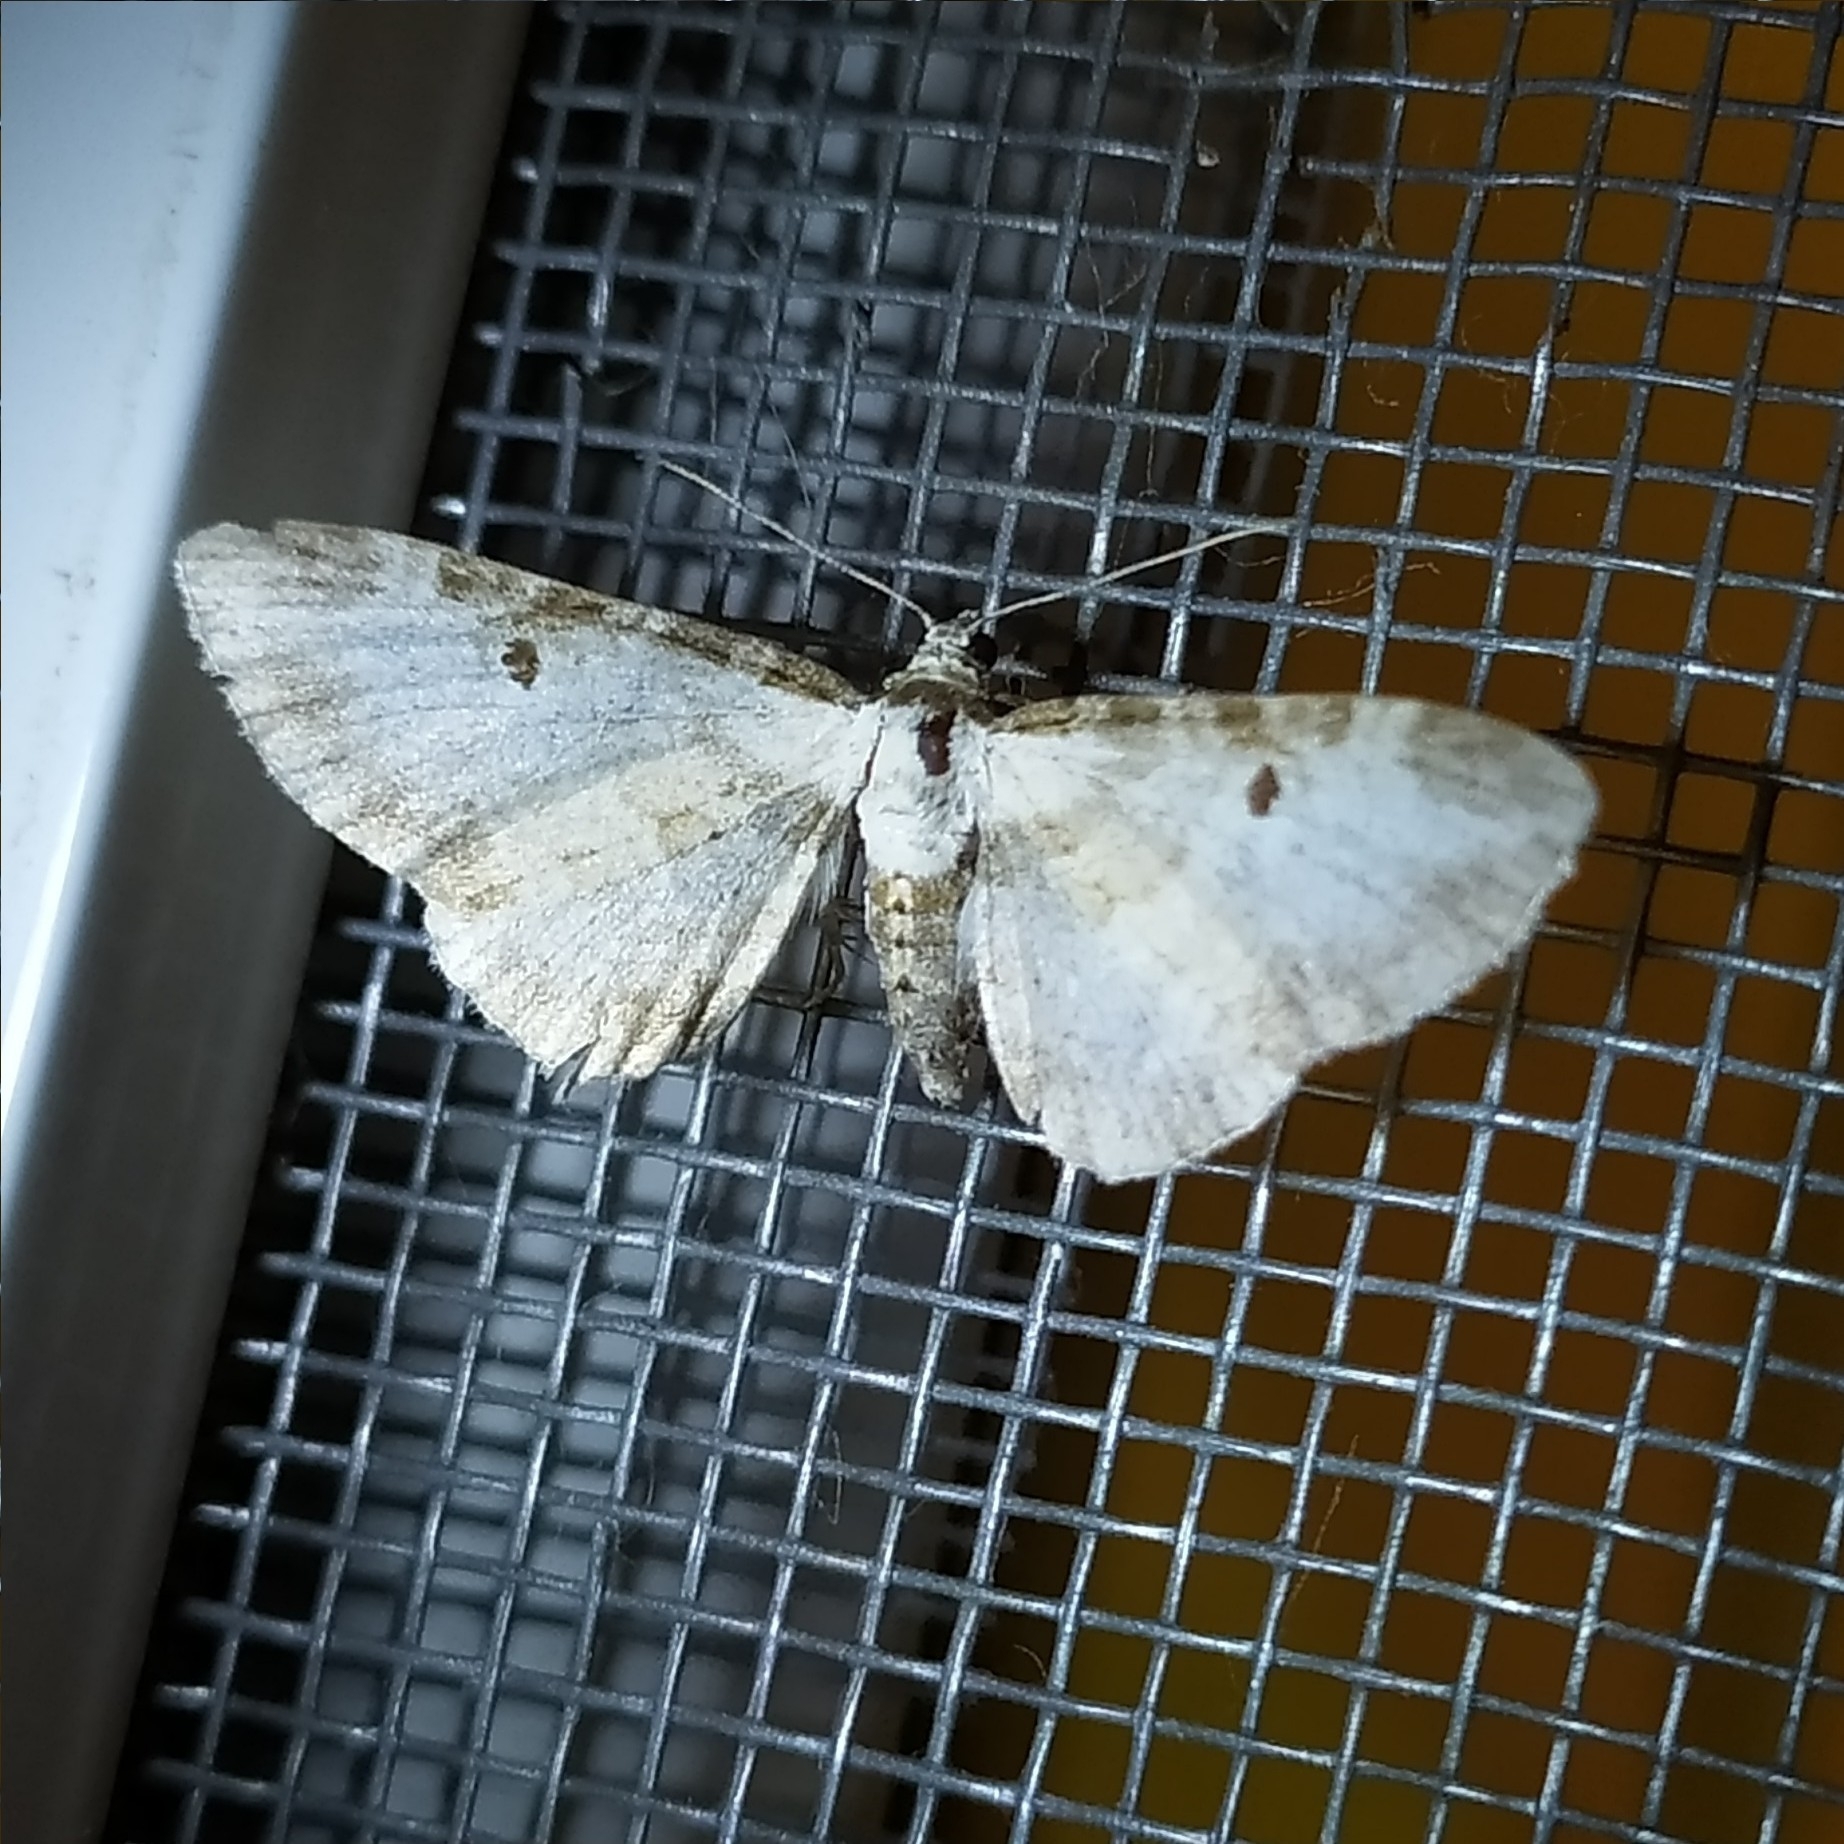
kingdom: Animalia
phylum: Arthropoda
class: Insecta
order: Lepidoptera
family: Geometridae
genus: Eupithecia
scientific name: Eupithecia succenturiata
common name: Bordered pug
